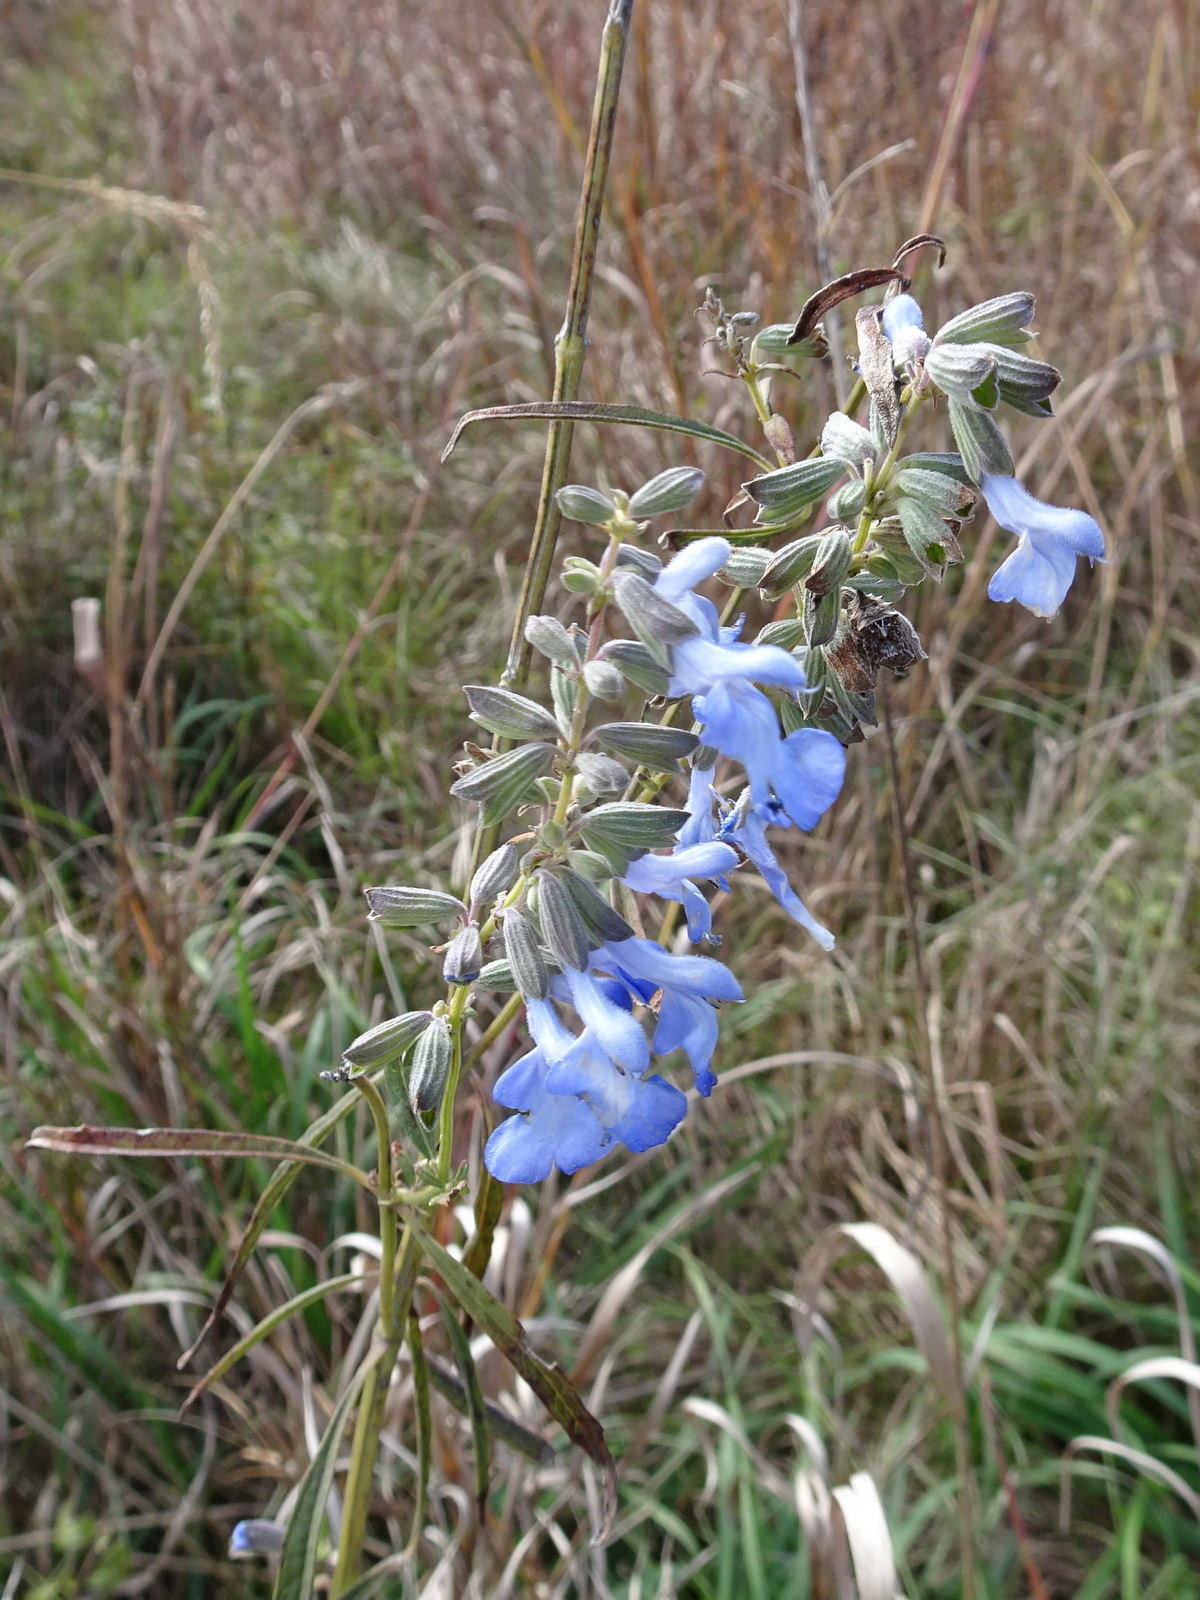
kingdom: Plantae
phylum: Tracheophyta
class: Magnoliopsida
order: Lamiales
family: Lamiaceae
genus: Salvia
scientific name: Salvia azurea
